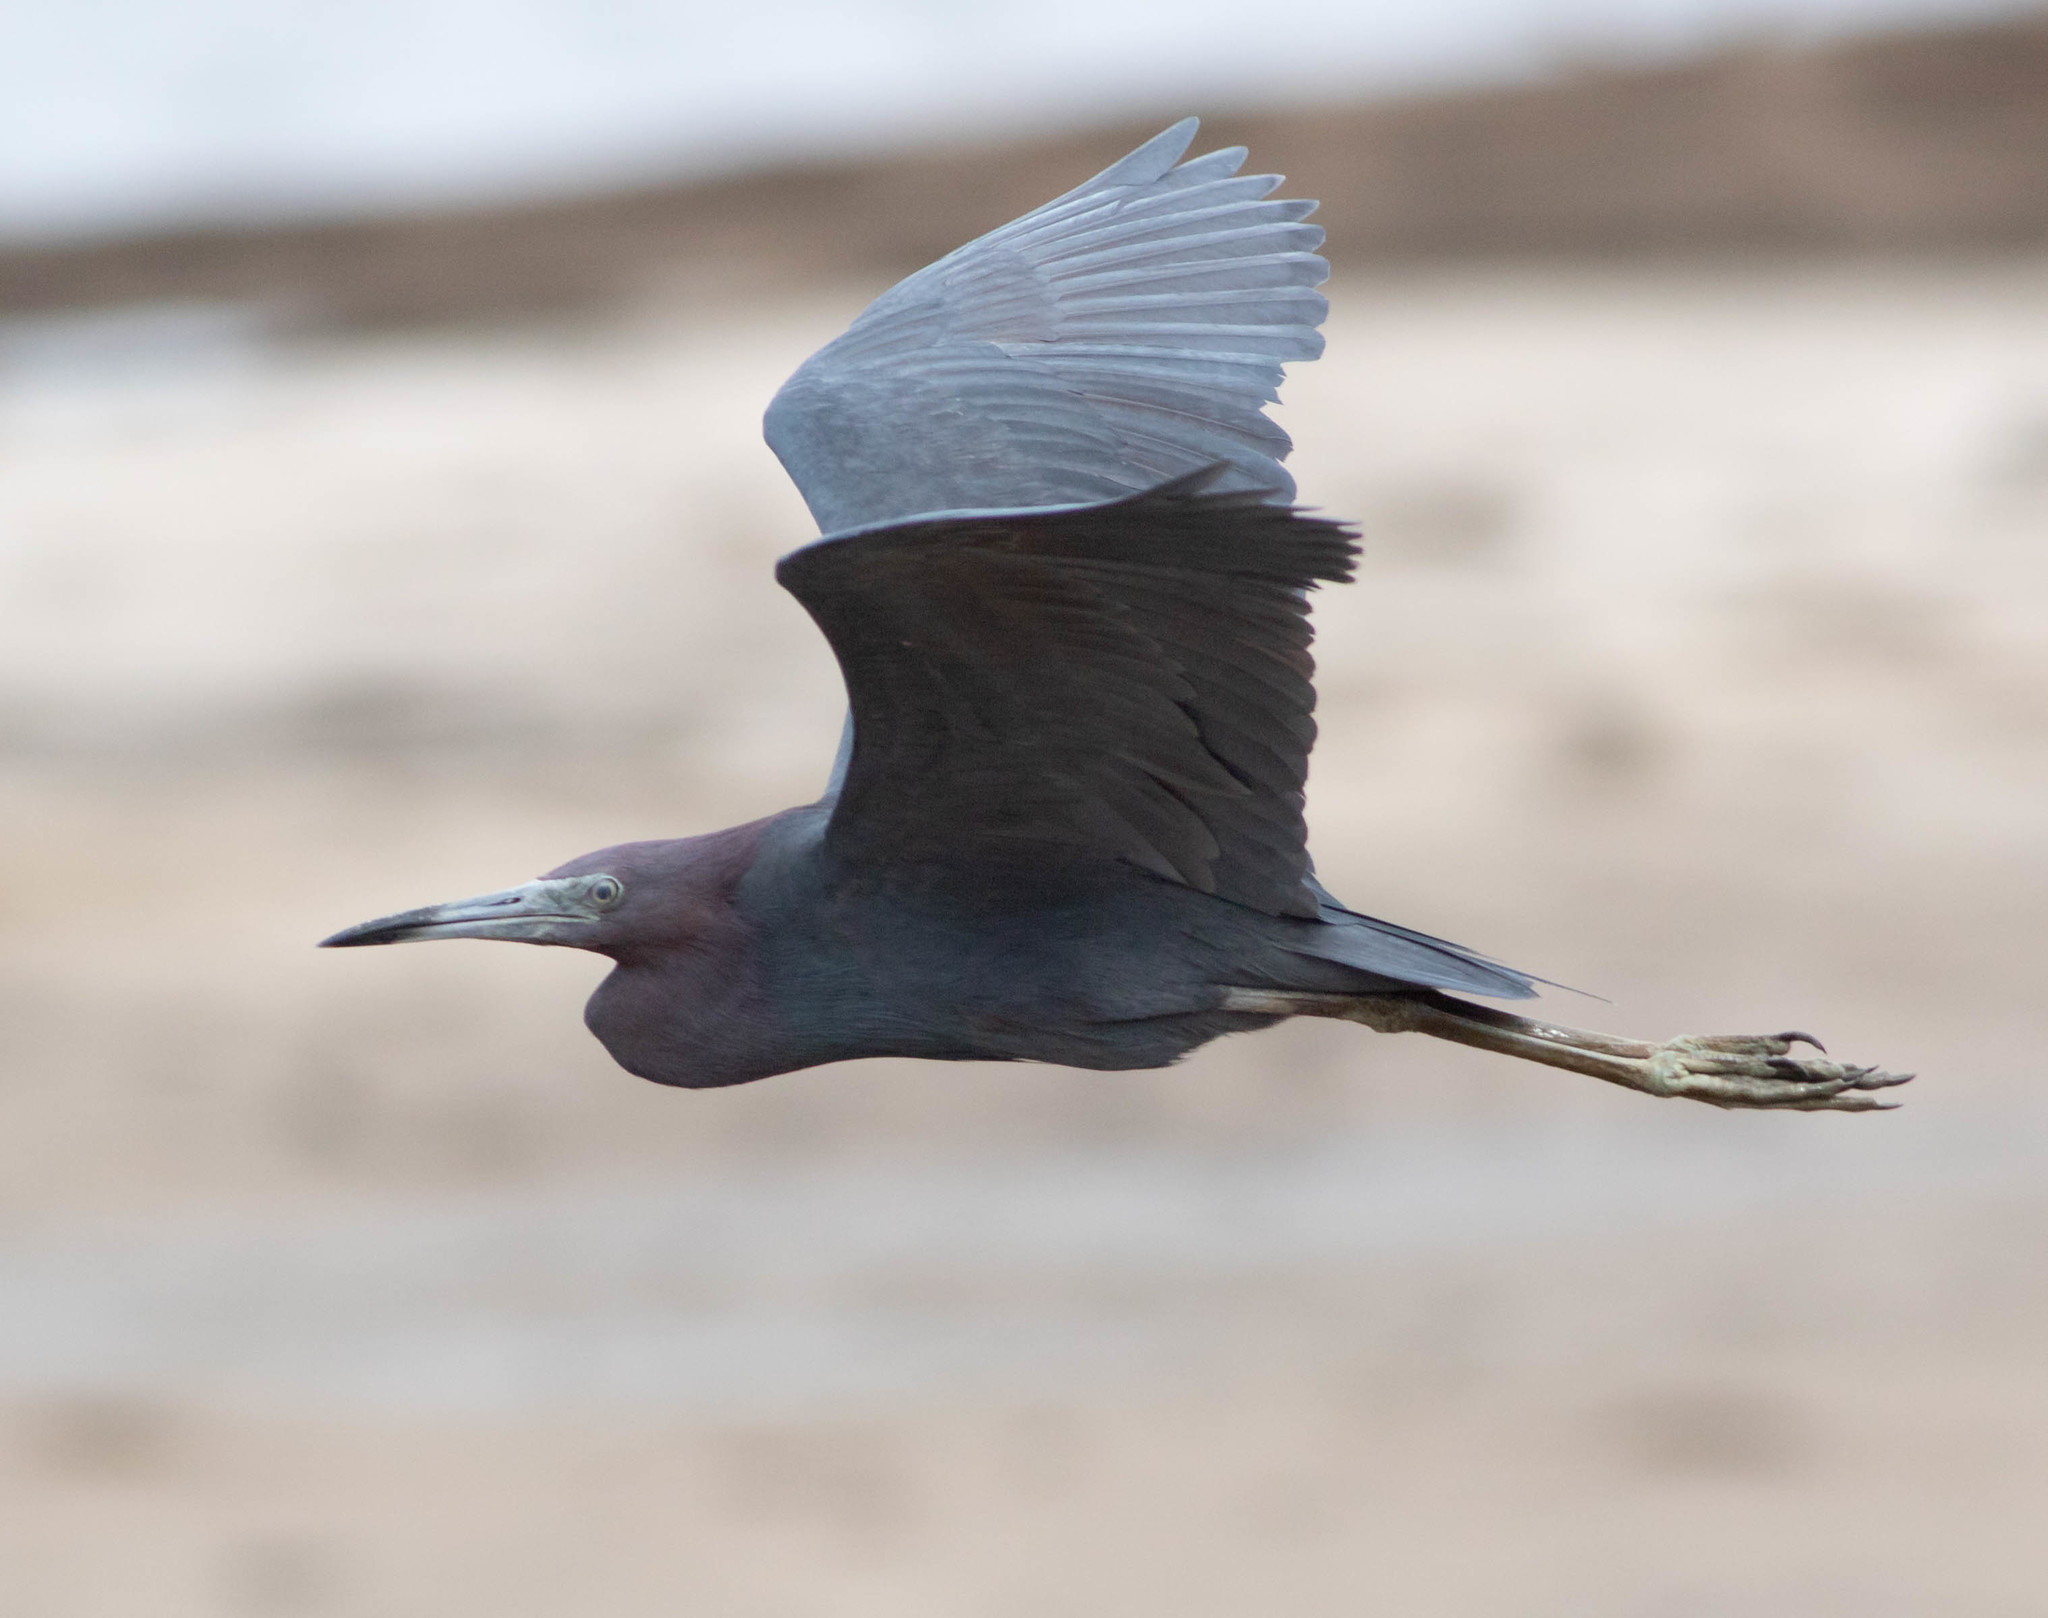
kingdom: Animalia
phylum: Chordata
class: Aves
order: Pelecaniformes
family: Ardeidae
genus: Egretta
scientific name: Egretta caerulea
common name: Little blue heron
